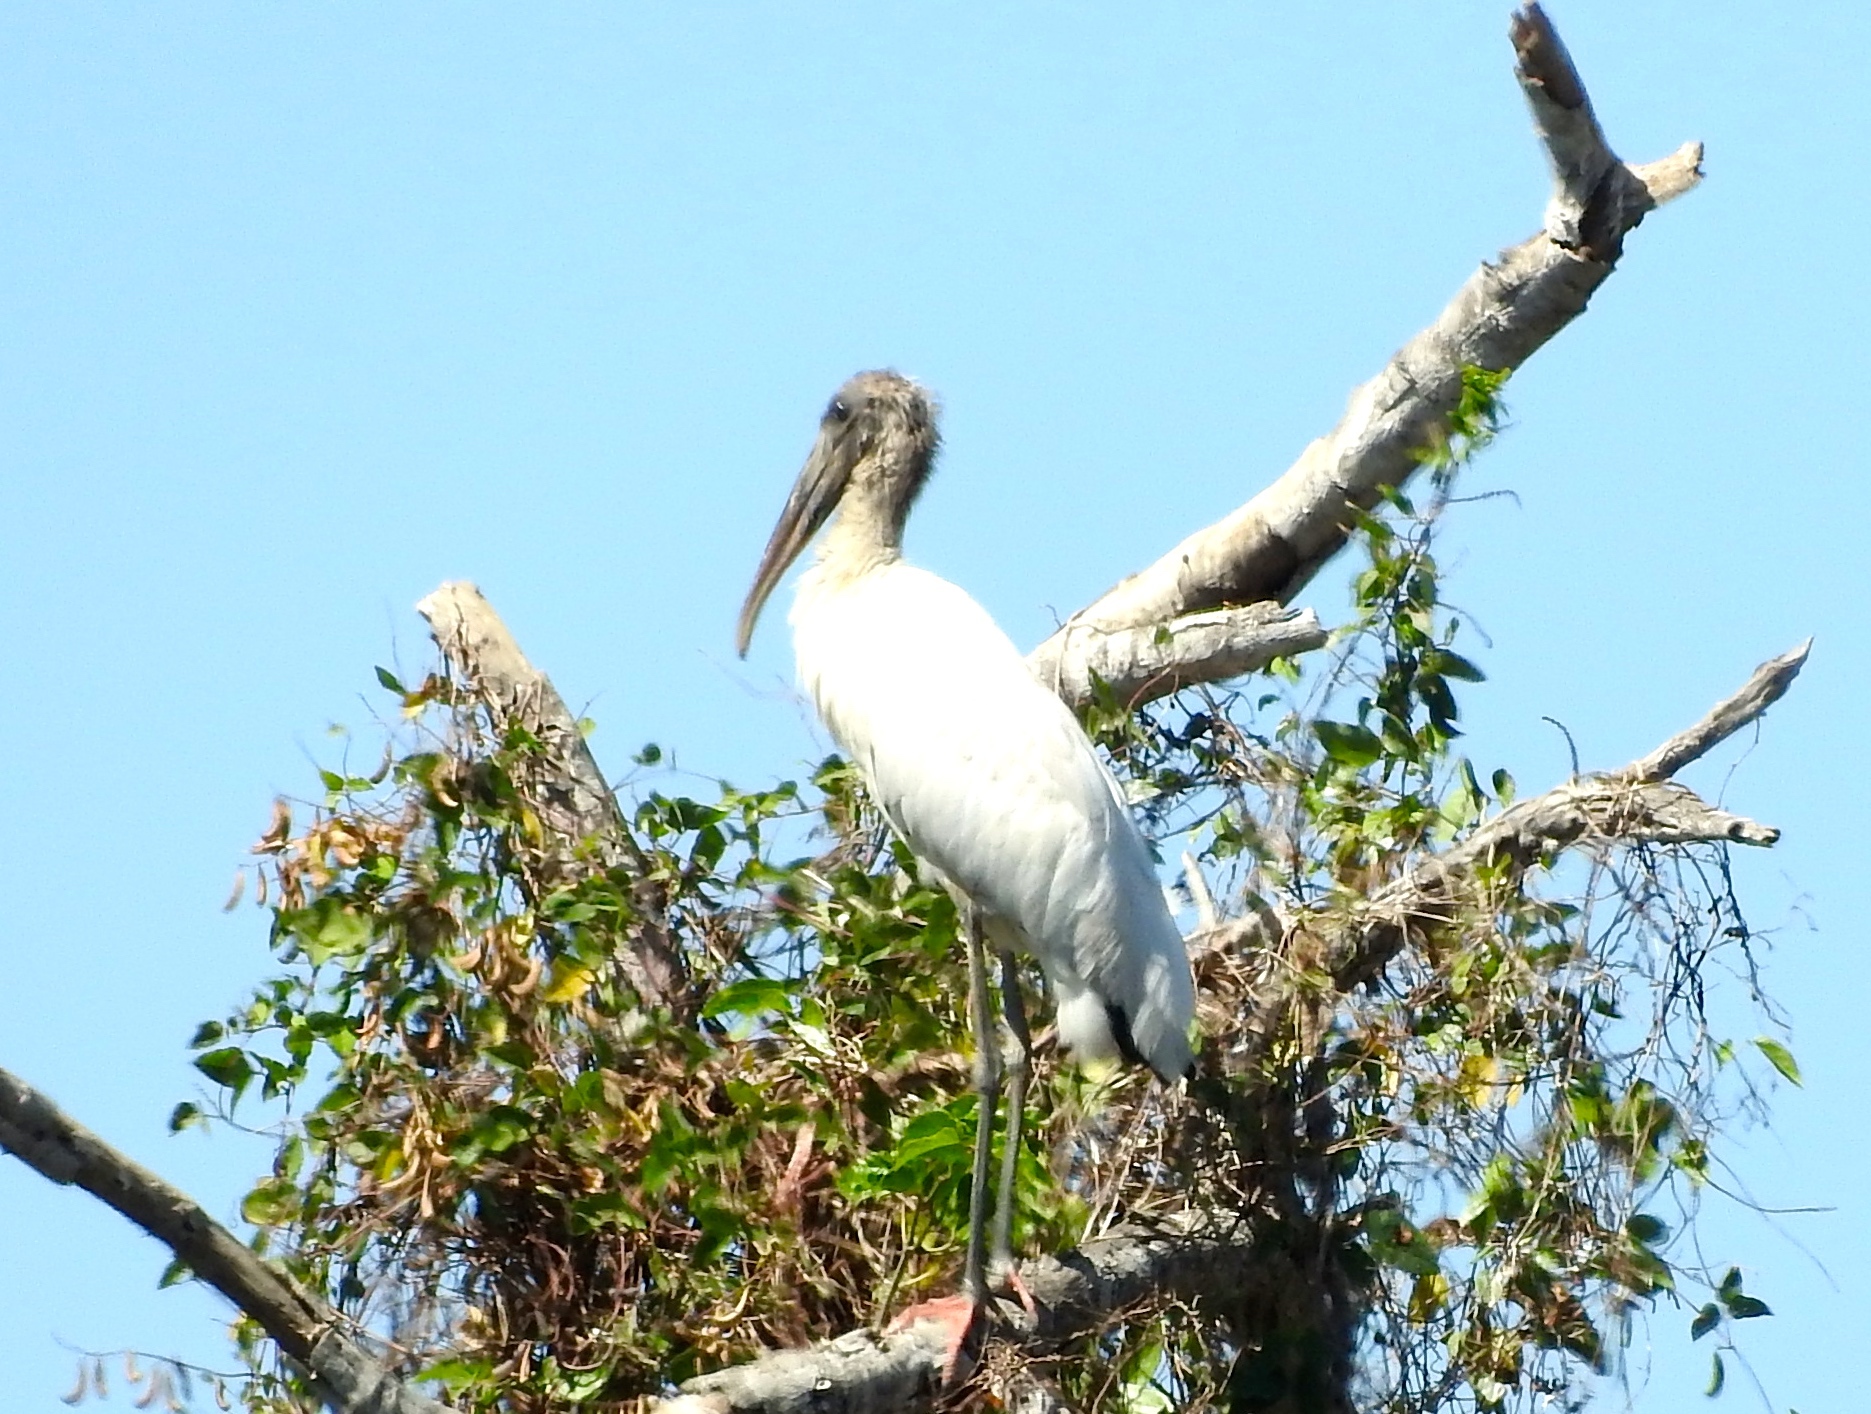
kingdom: Animalia
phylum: Chordata
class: Aves
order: Ciconiiformes
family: Ciconiidae
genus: Mycteria
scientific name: Mycteria americana
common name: Wood stork
